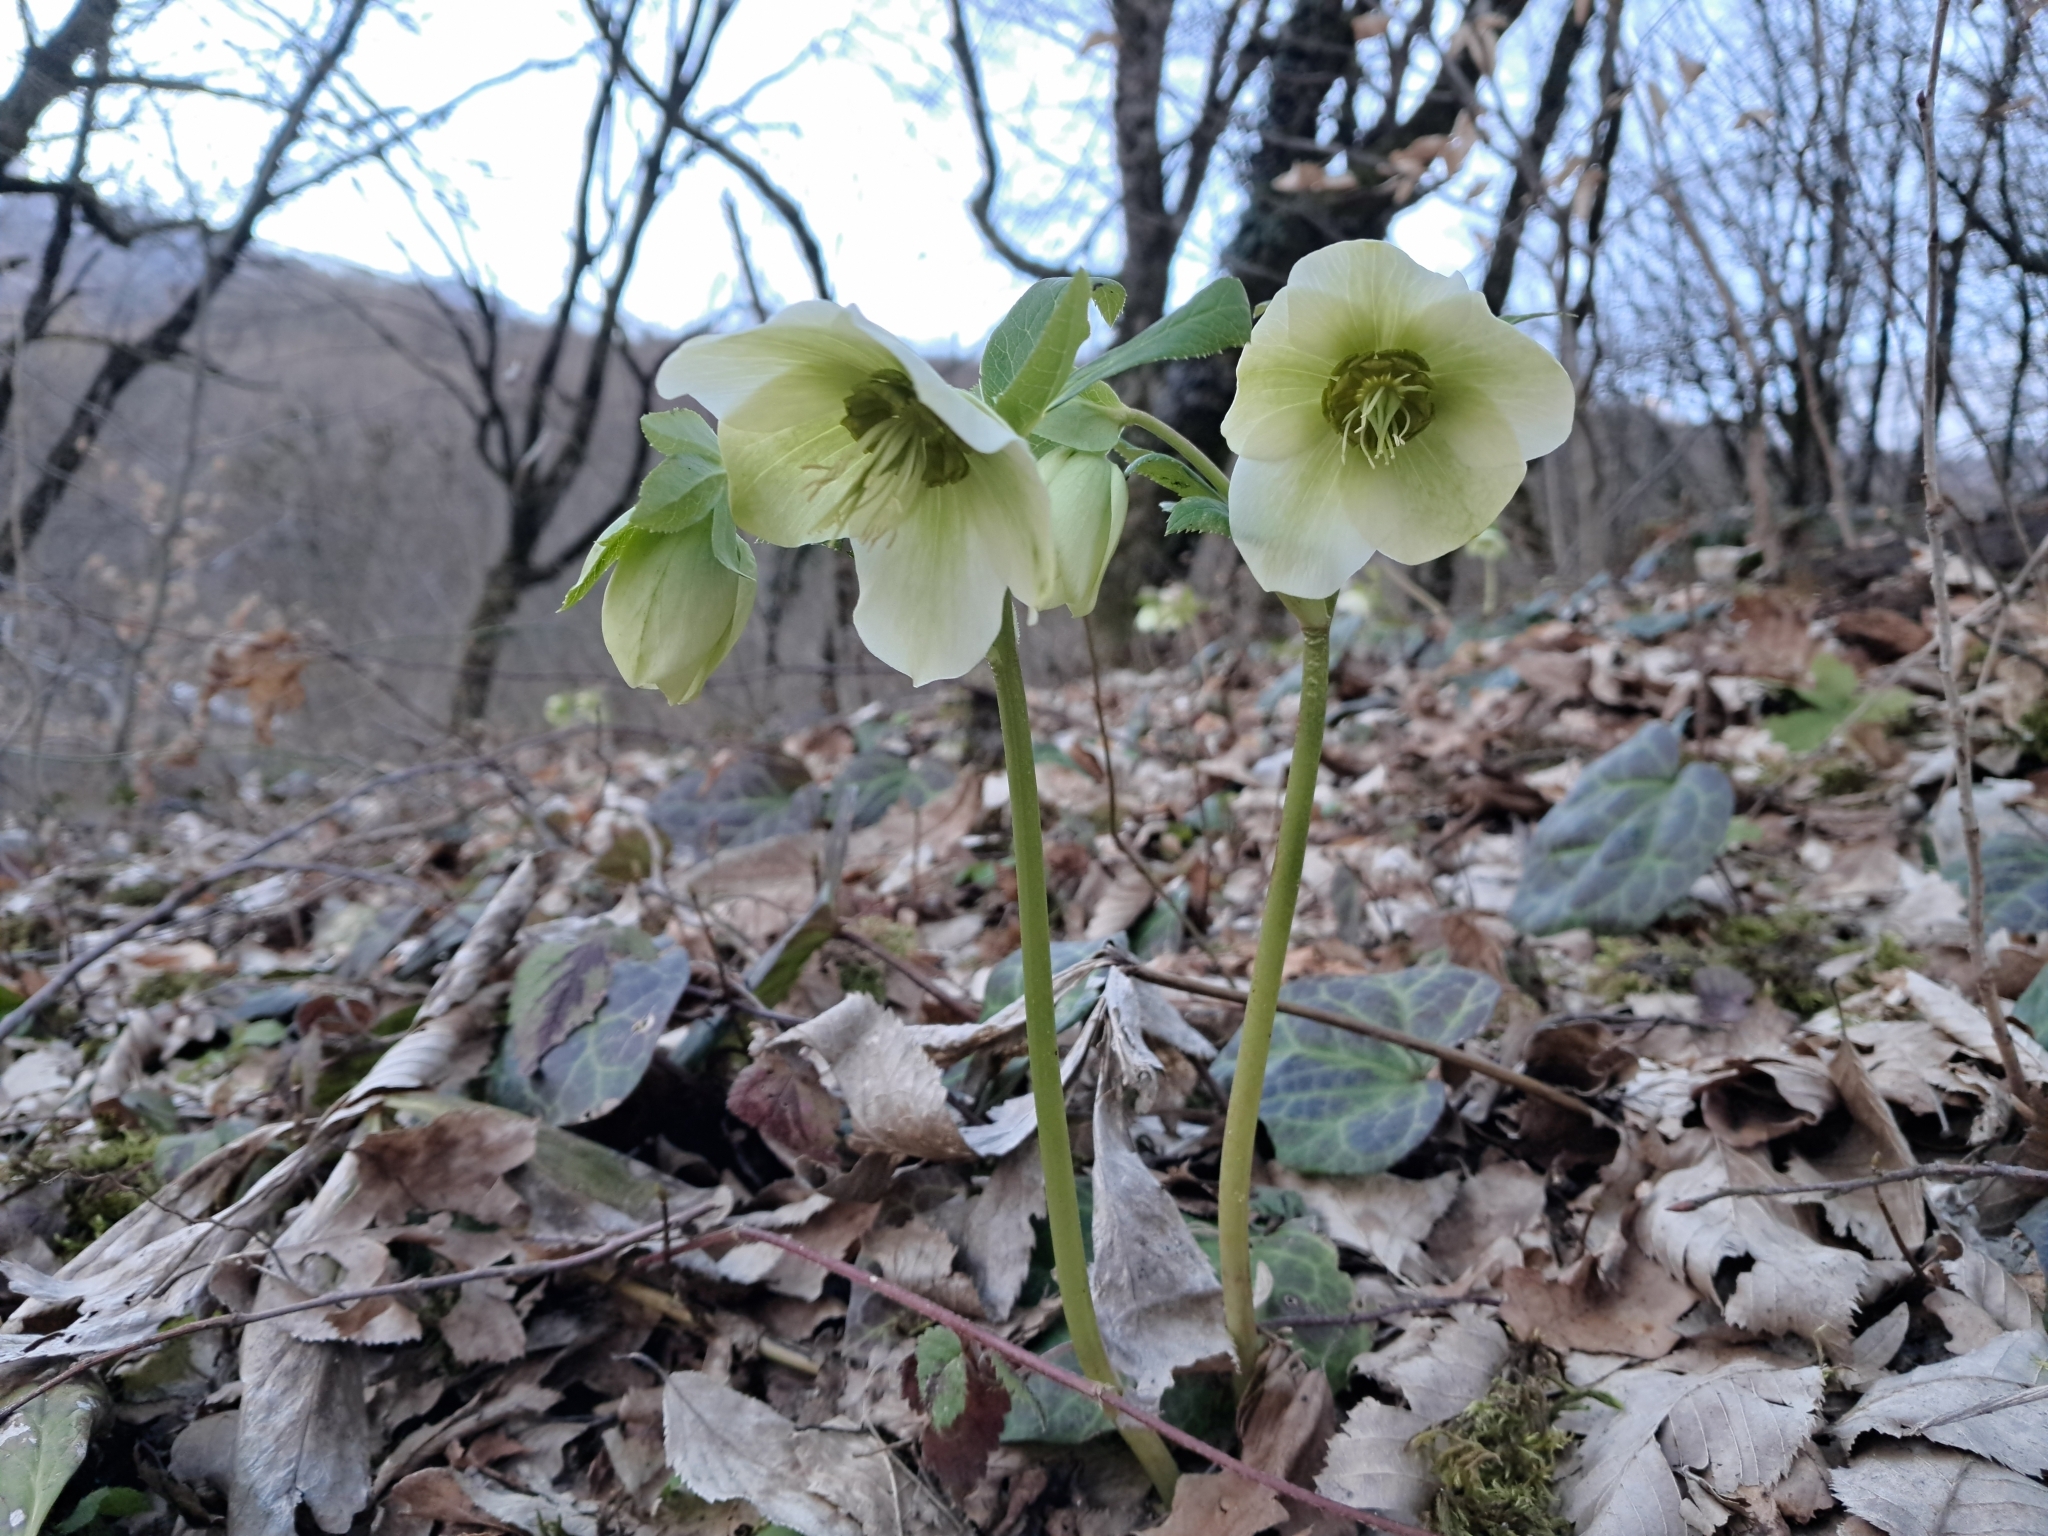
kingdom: Plantae
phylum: Tracheophyta
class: Magnoliopsida
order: Ranunculales
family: Ranunculaceae
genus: Helleborus
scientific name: Helleborus orientalis
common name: Lenten-rose
